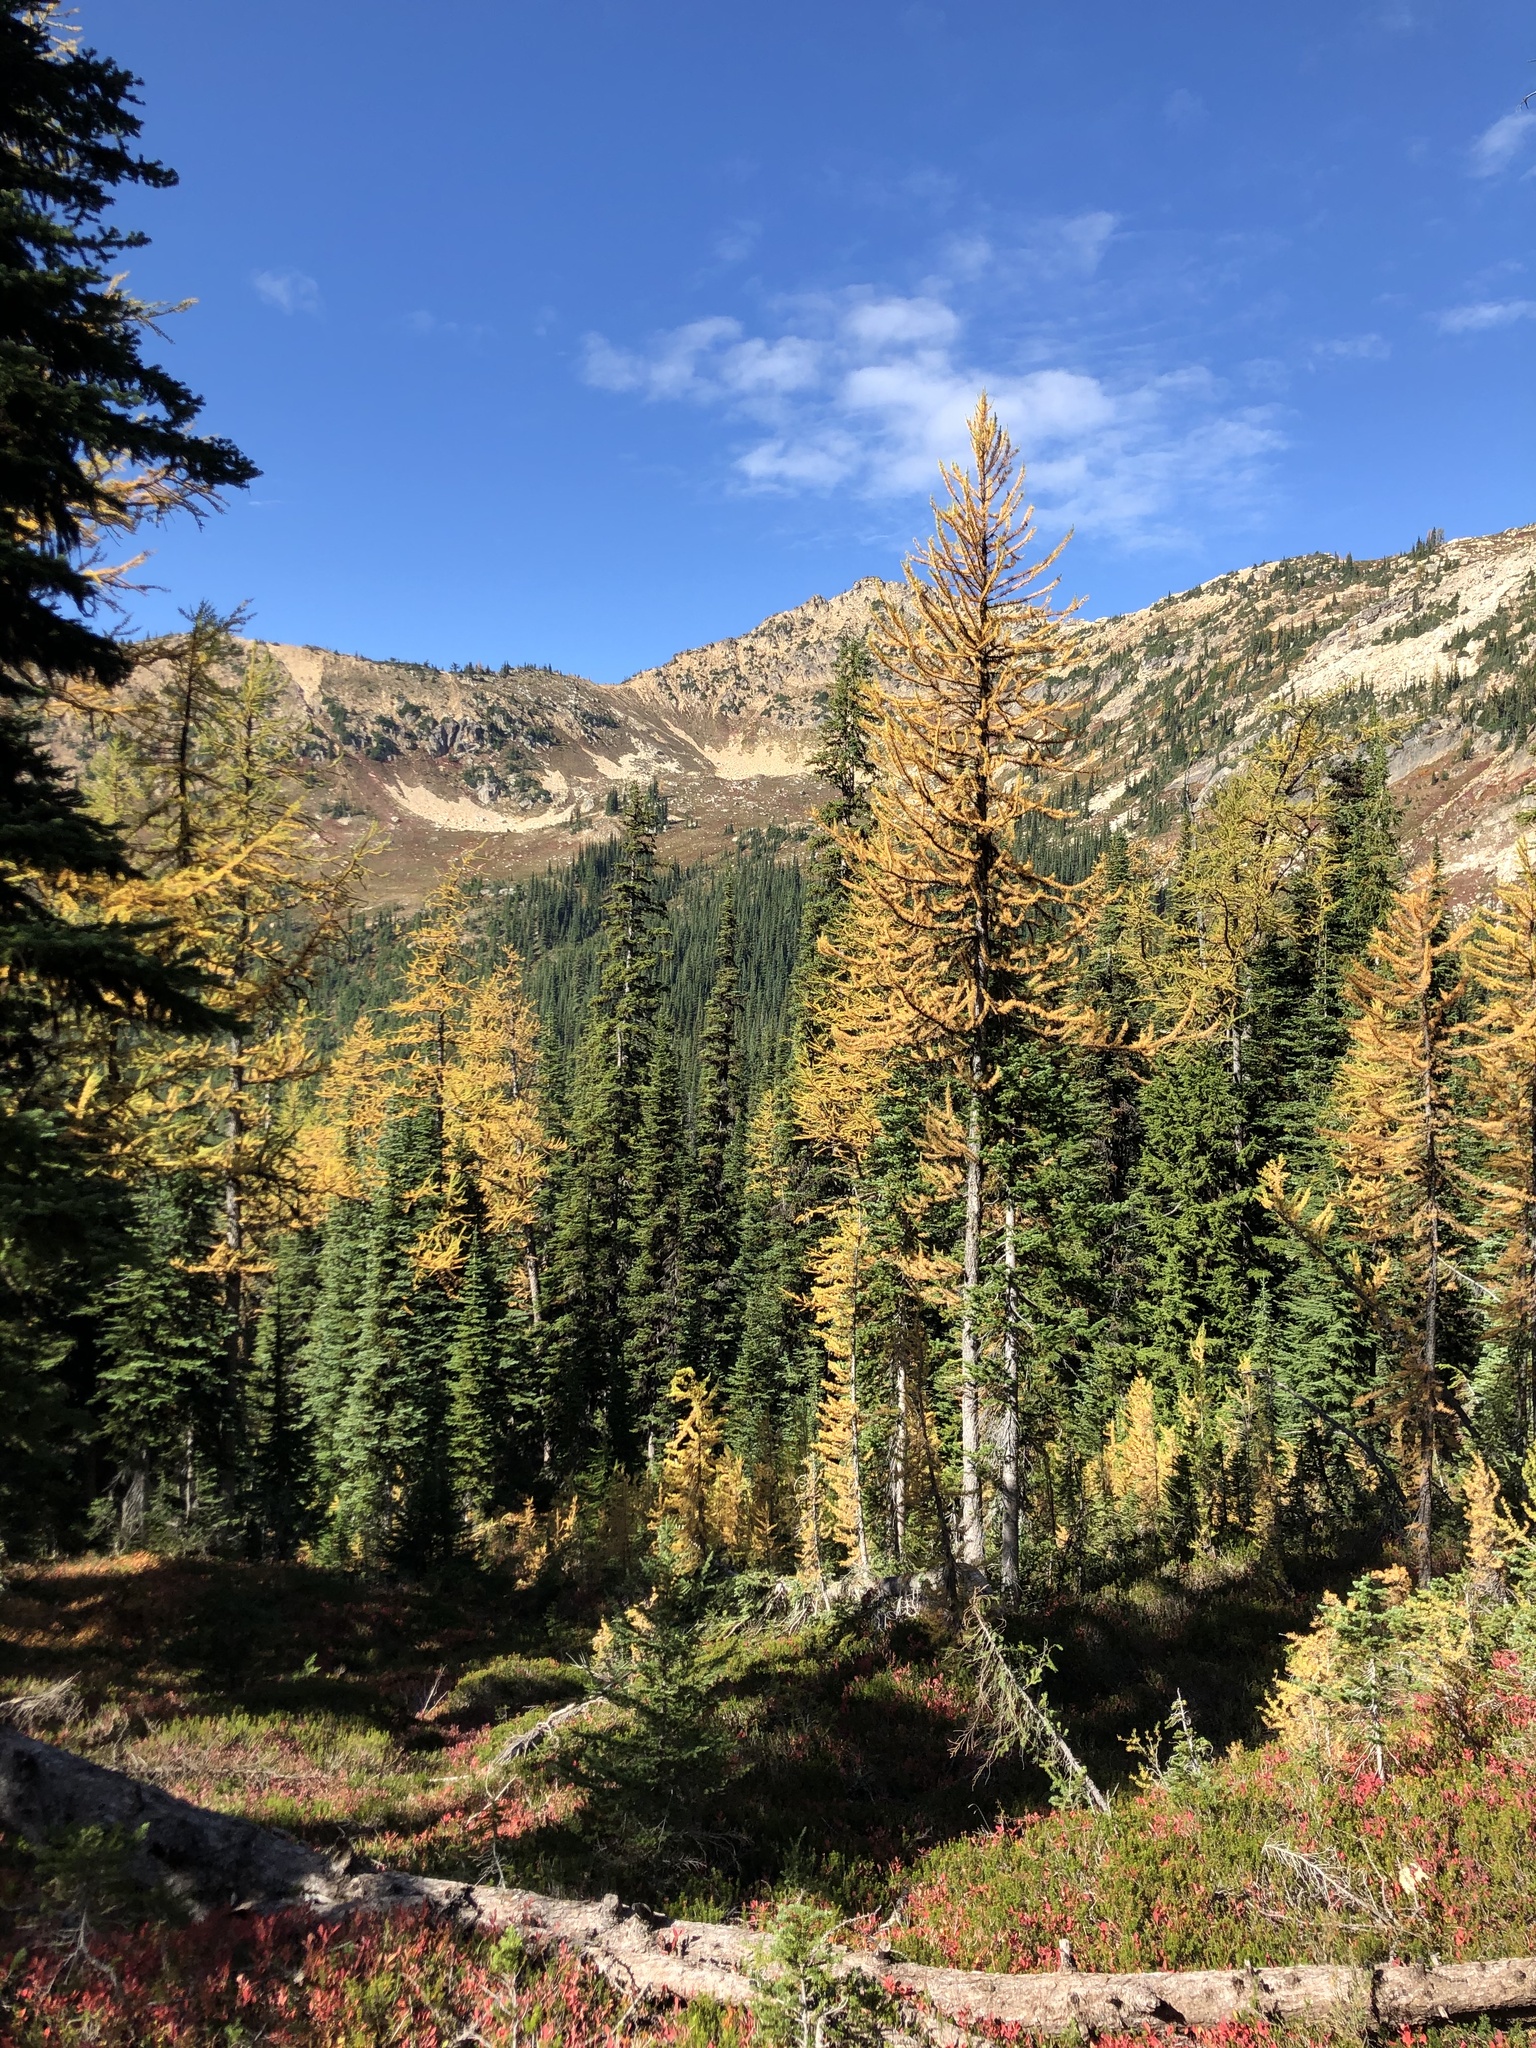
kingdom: Plantae
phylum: Tracheophyta
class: Pinopsida
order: Pinales
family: Pinaceae
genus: Larix
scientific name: Larix lyallii
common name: Alpine larch
